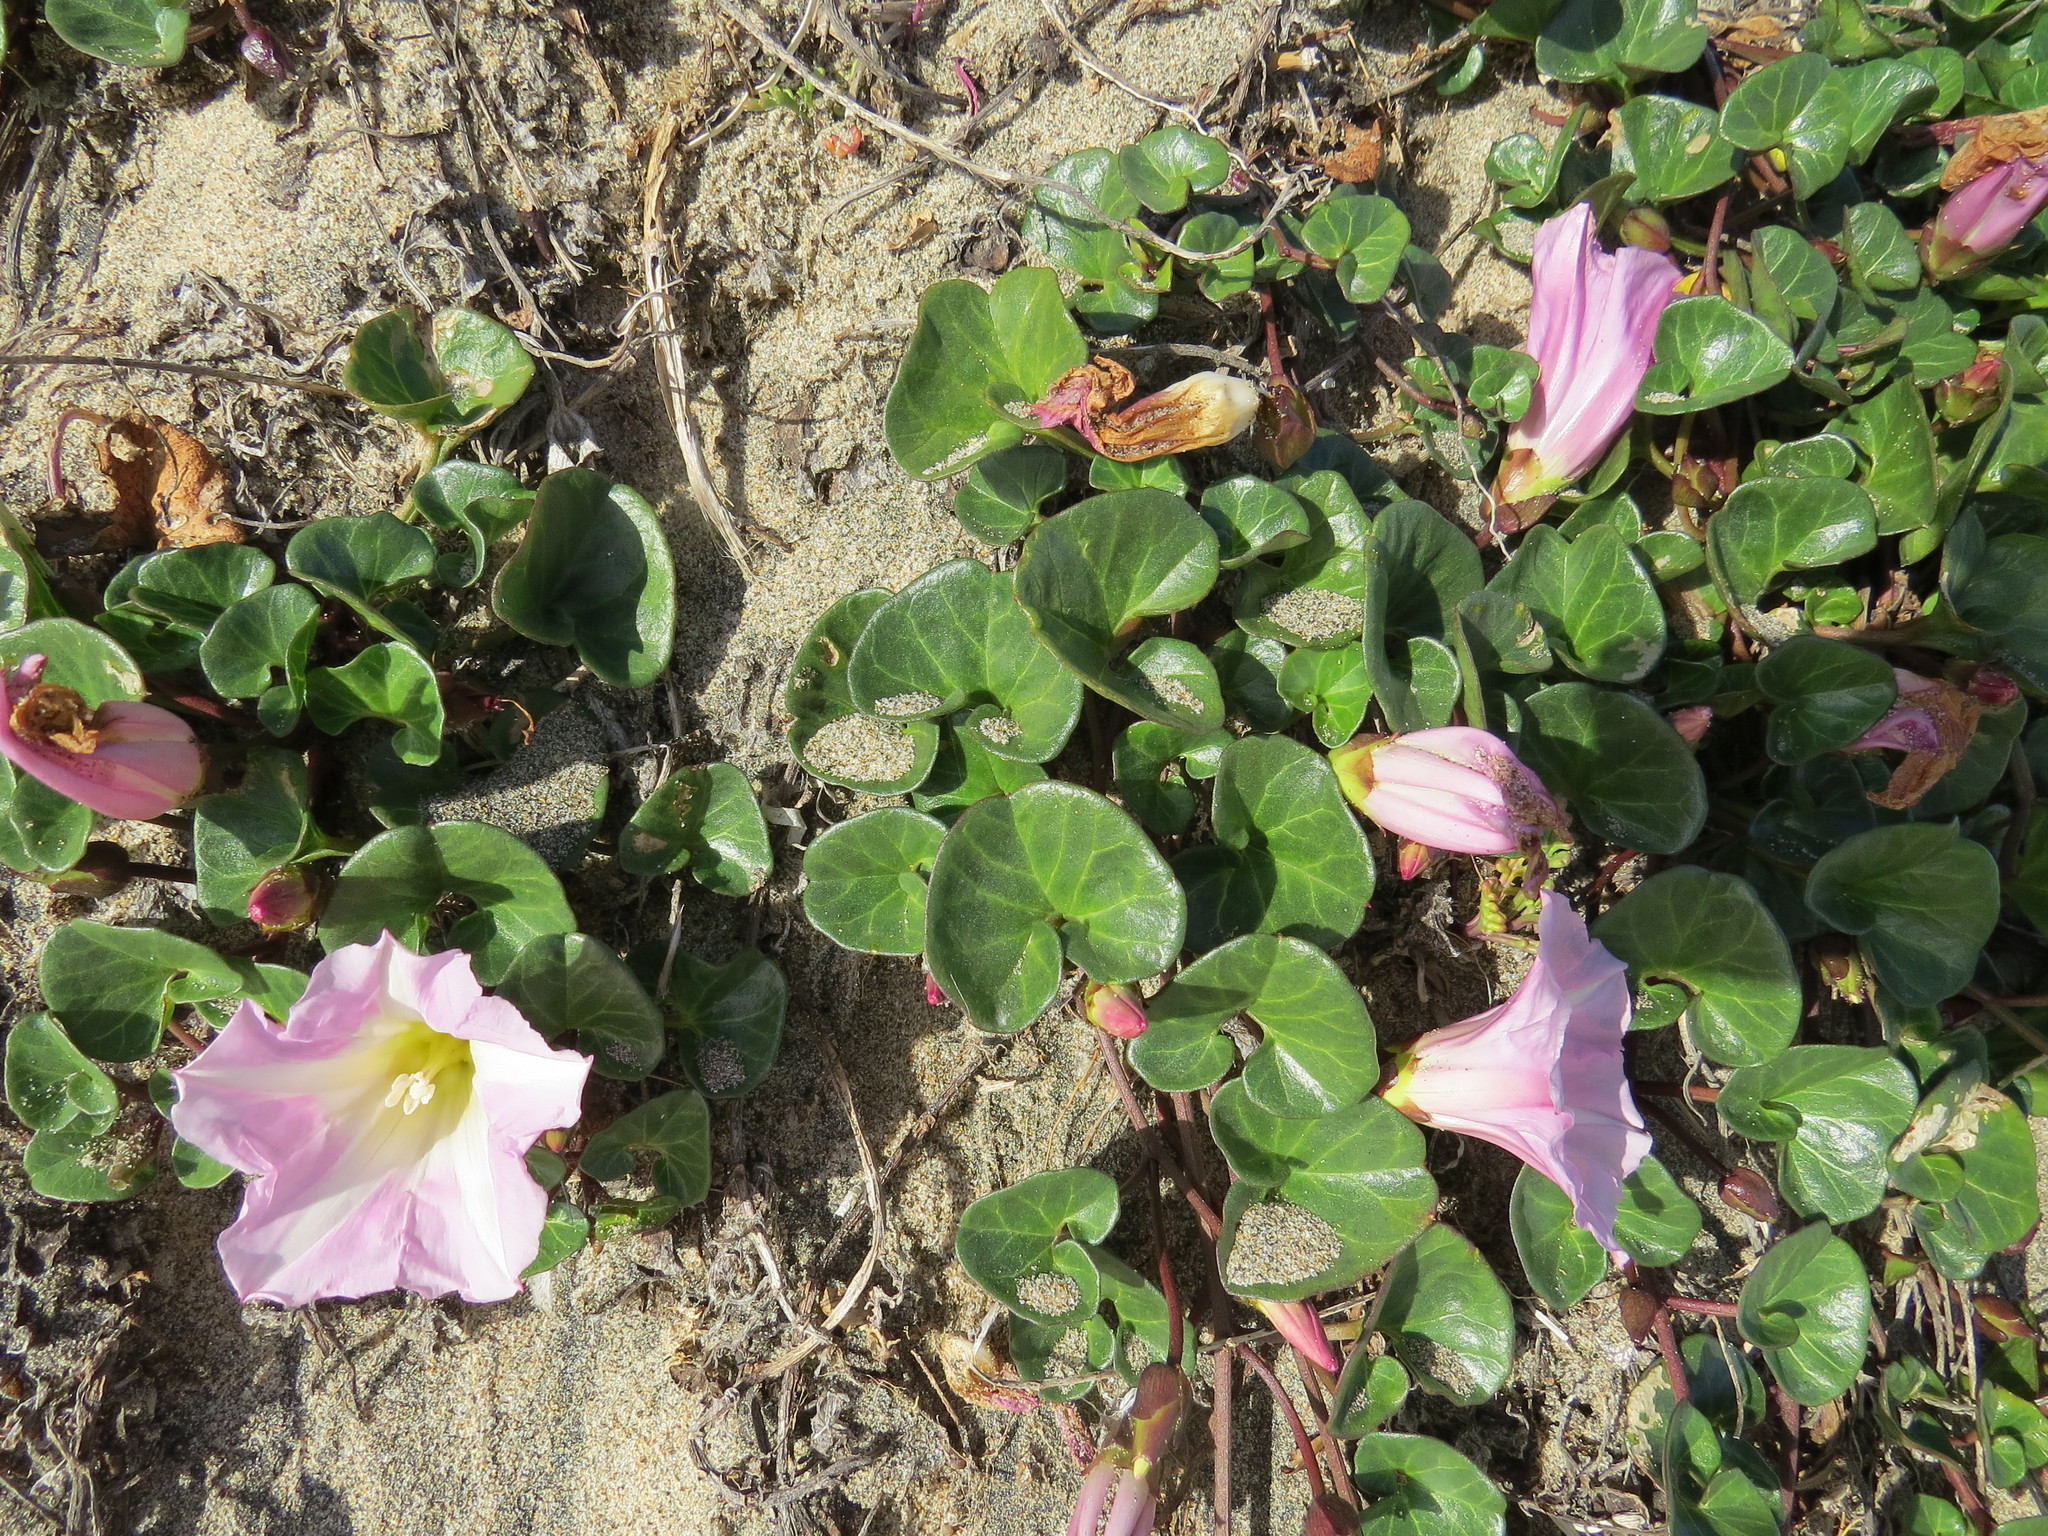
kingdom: Plantae
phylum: Tracheophyta
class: Magnoliopsida
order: Solanales
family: Convolvulaceae
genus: Calystegia
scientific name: Calystegia soldanella
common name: Sea bindweed
